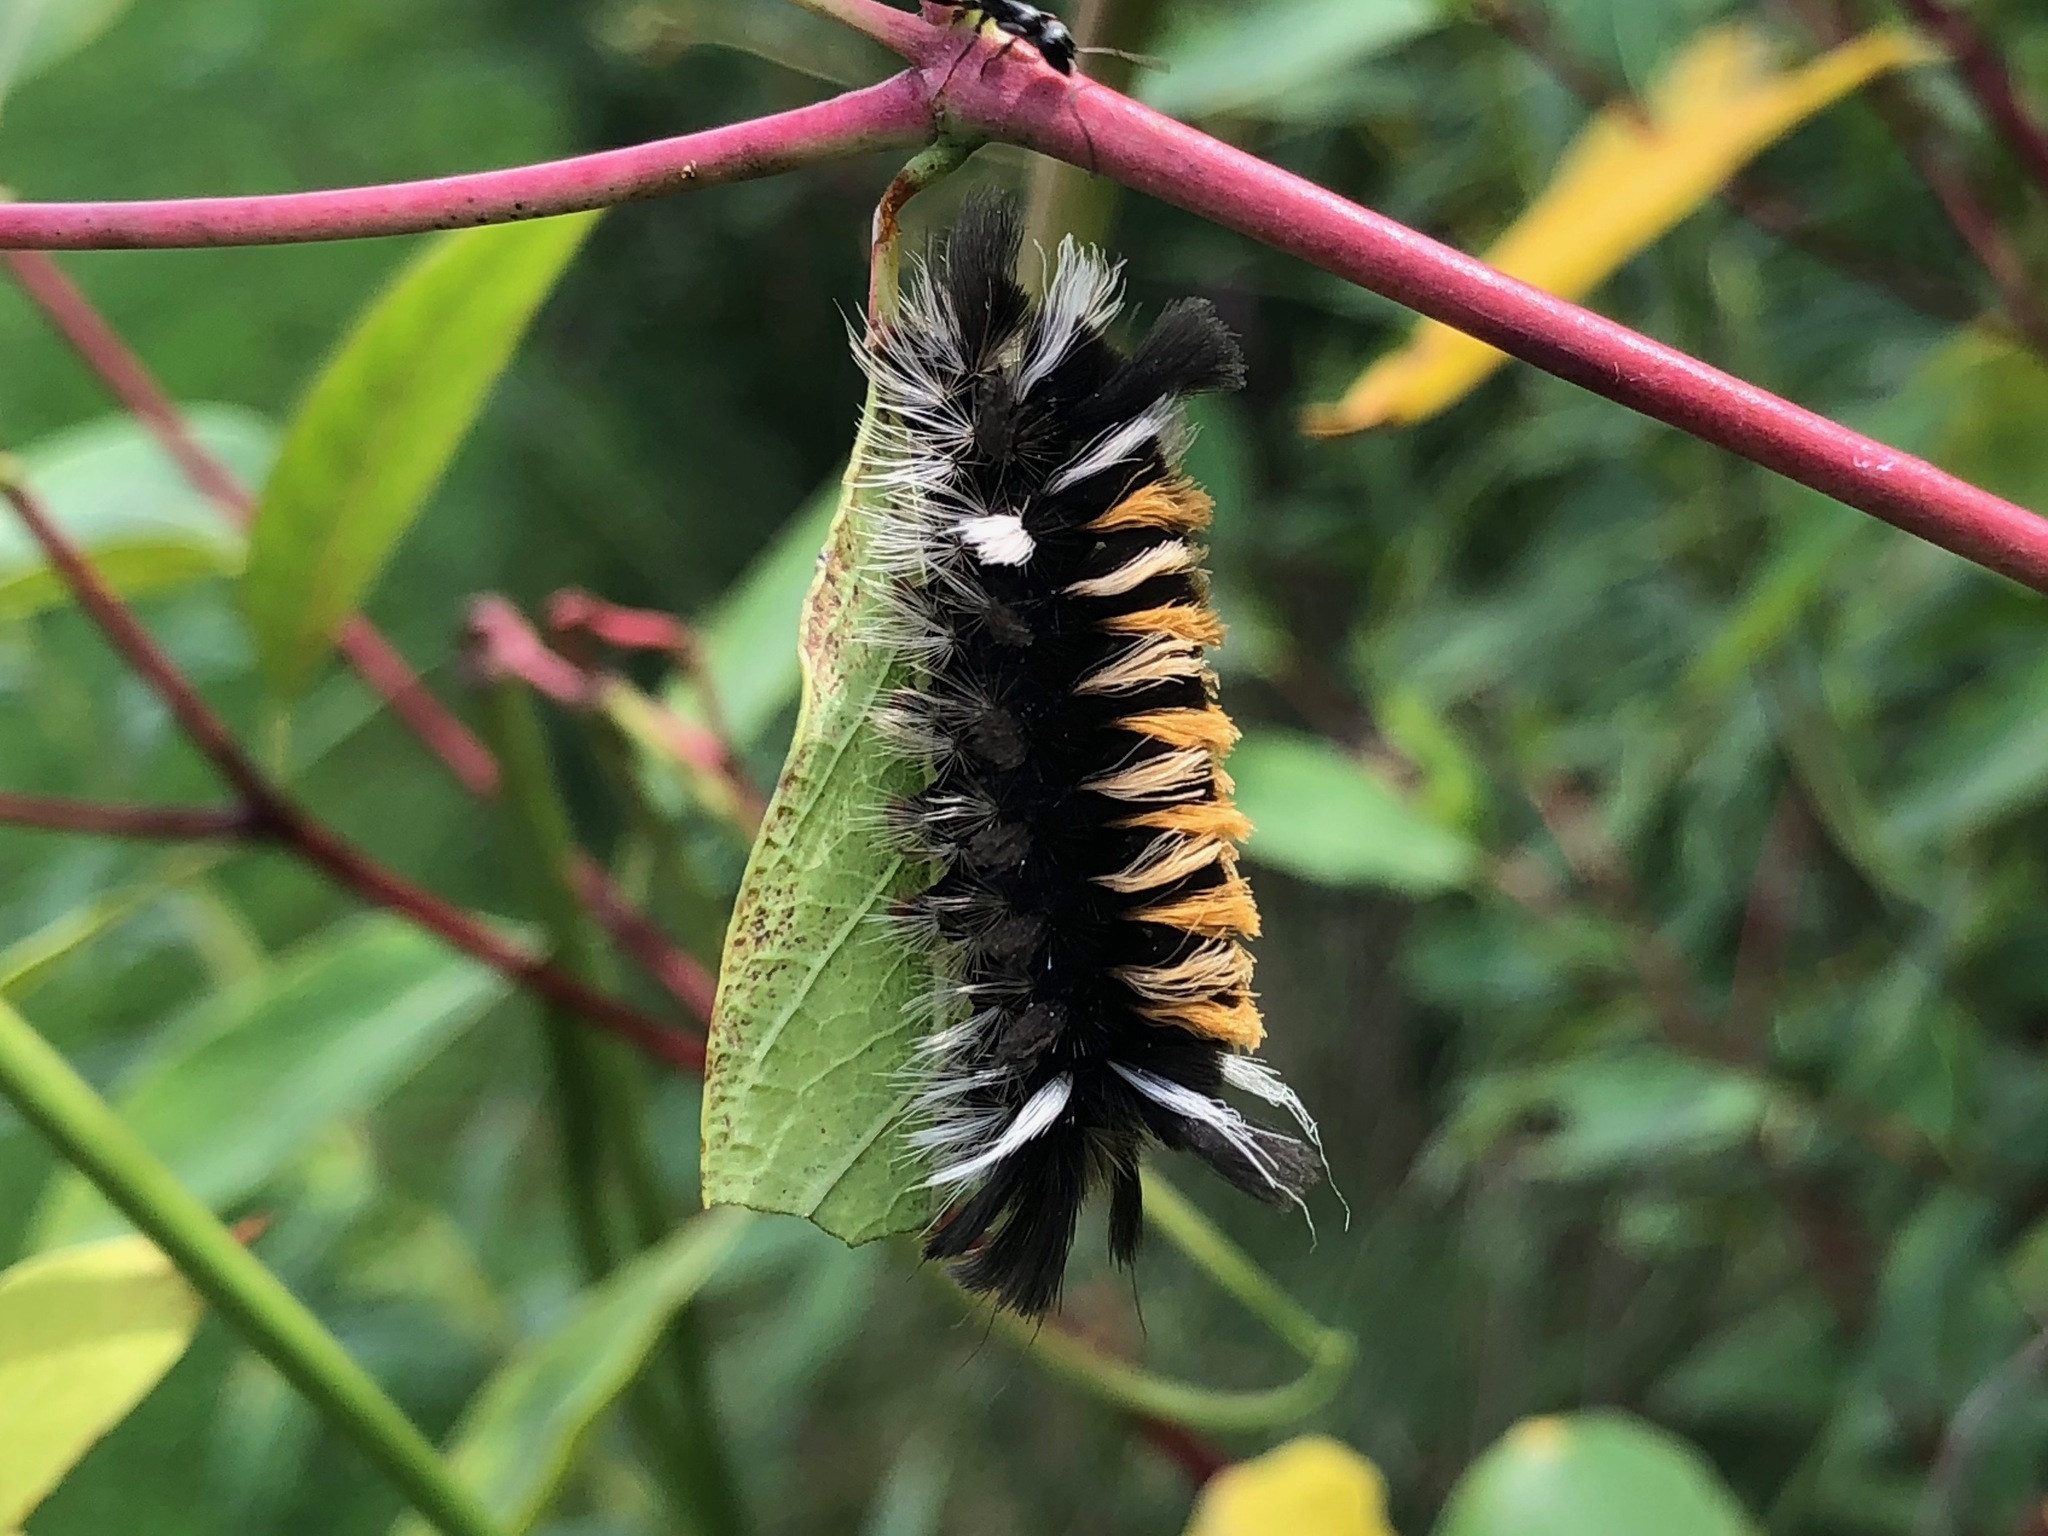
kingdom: Animalia
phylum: Arthropoda
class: Insecta
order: Lepidoptera
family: Erebidae
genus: Euchaetes
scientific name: Euchaetes egle
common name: Milkweed tussock moth
